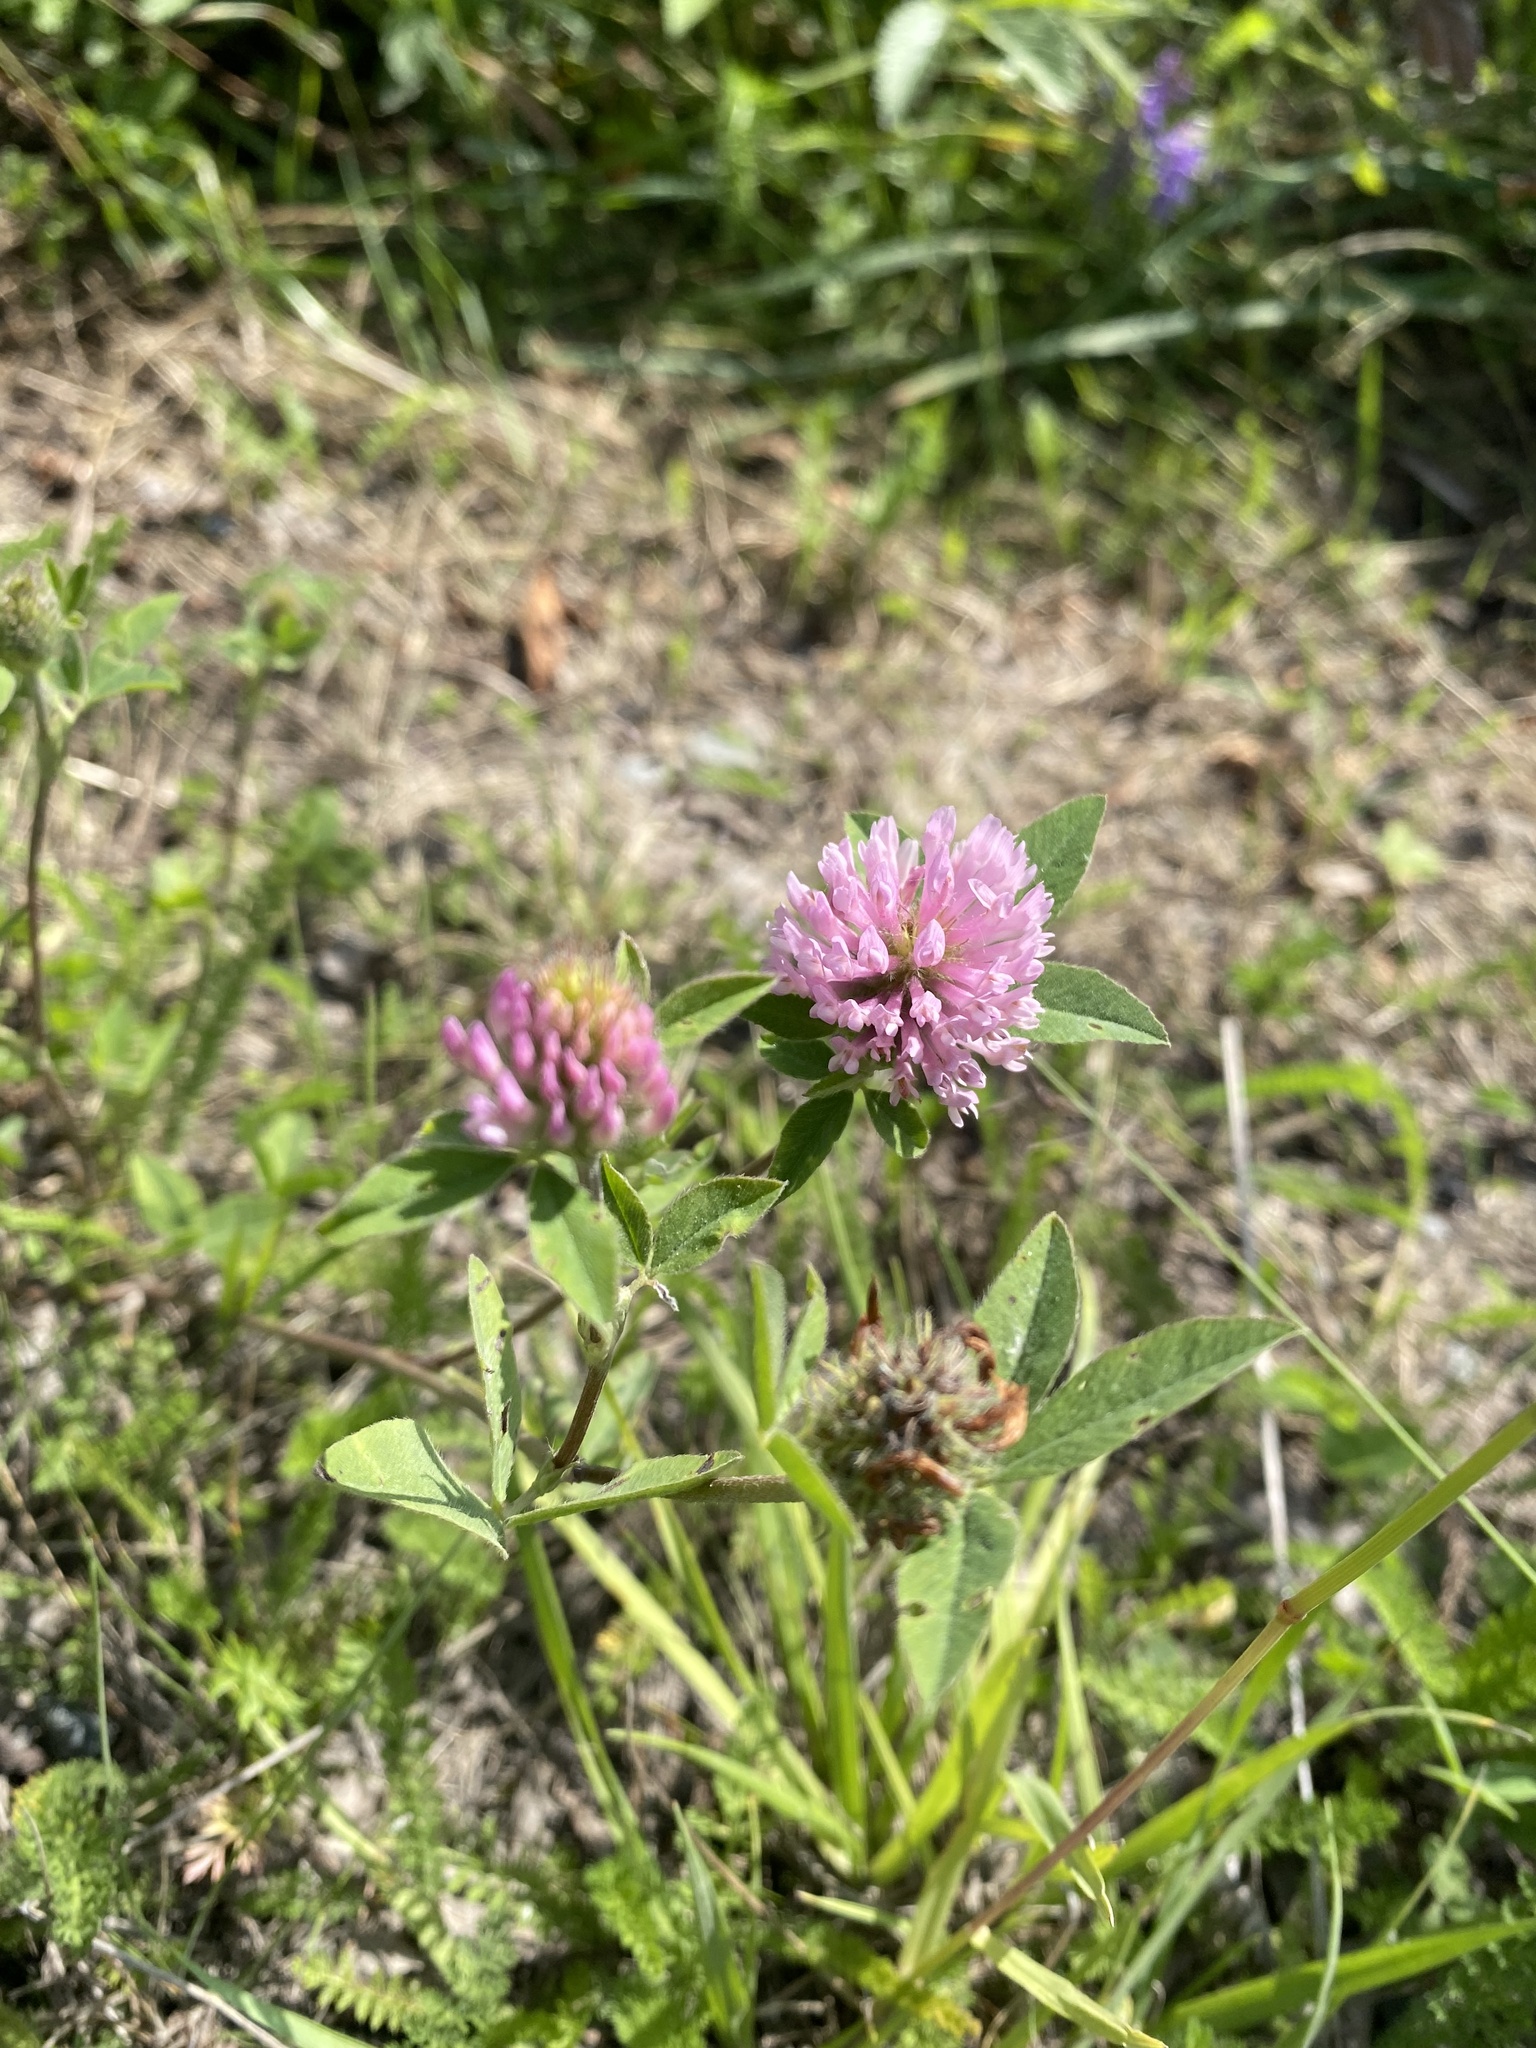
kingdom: Plantae
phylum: Tracheophyta
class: Magnoliopsida
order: Fabales
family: Fabaceae
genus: Trifolium
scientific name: Trifolium pratense
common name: Red clover
